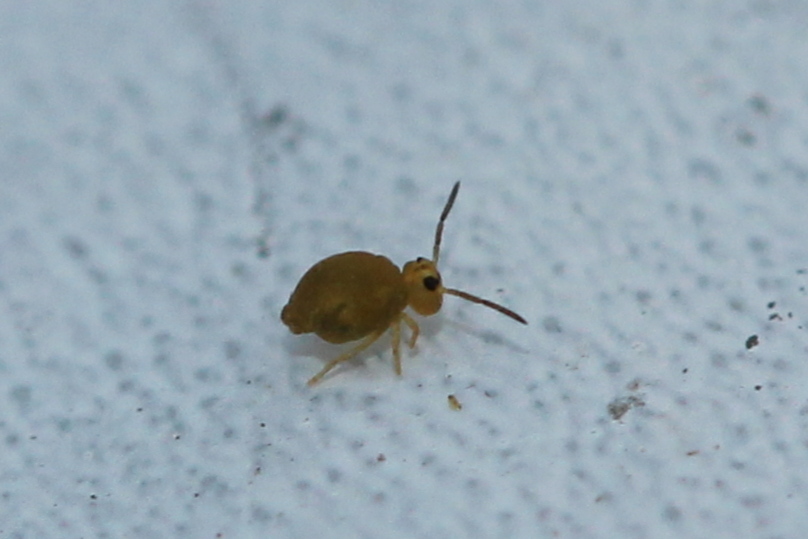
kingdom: Animalia
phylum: Arthropoda
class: Collembola
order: Symphypleona
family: Katiannidae
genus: Sminthurinus
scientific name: Sminthurinus henshawi
